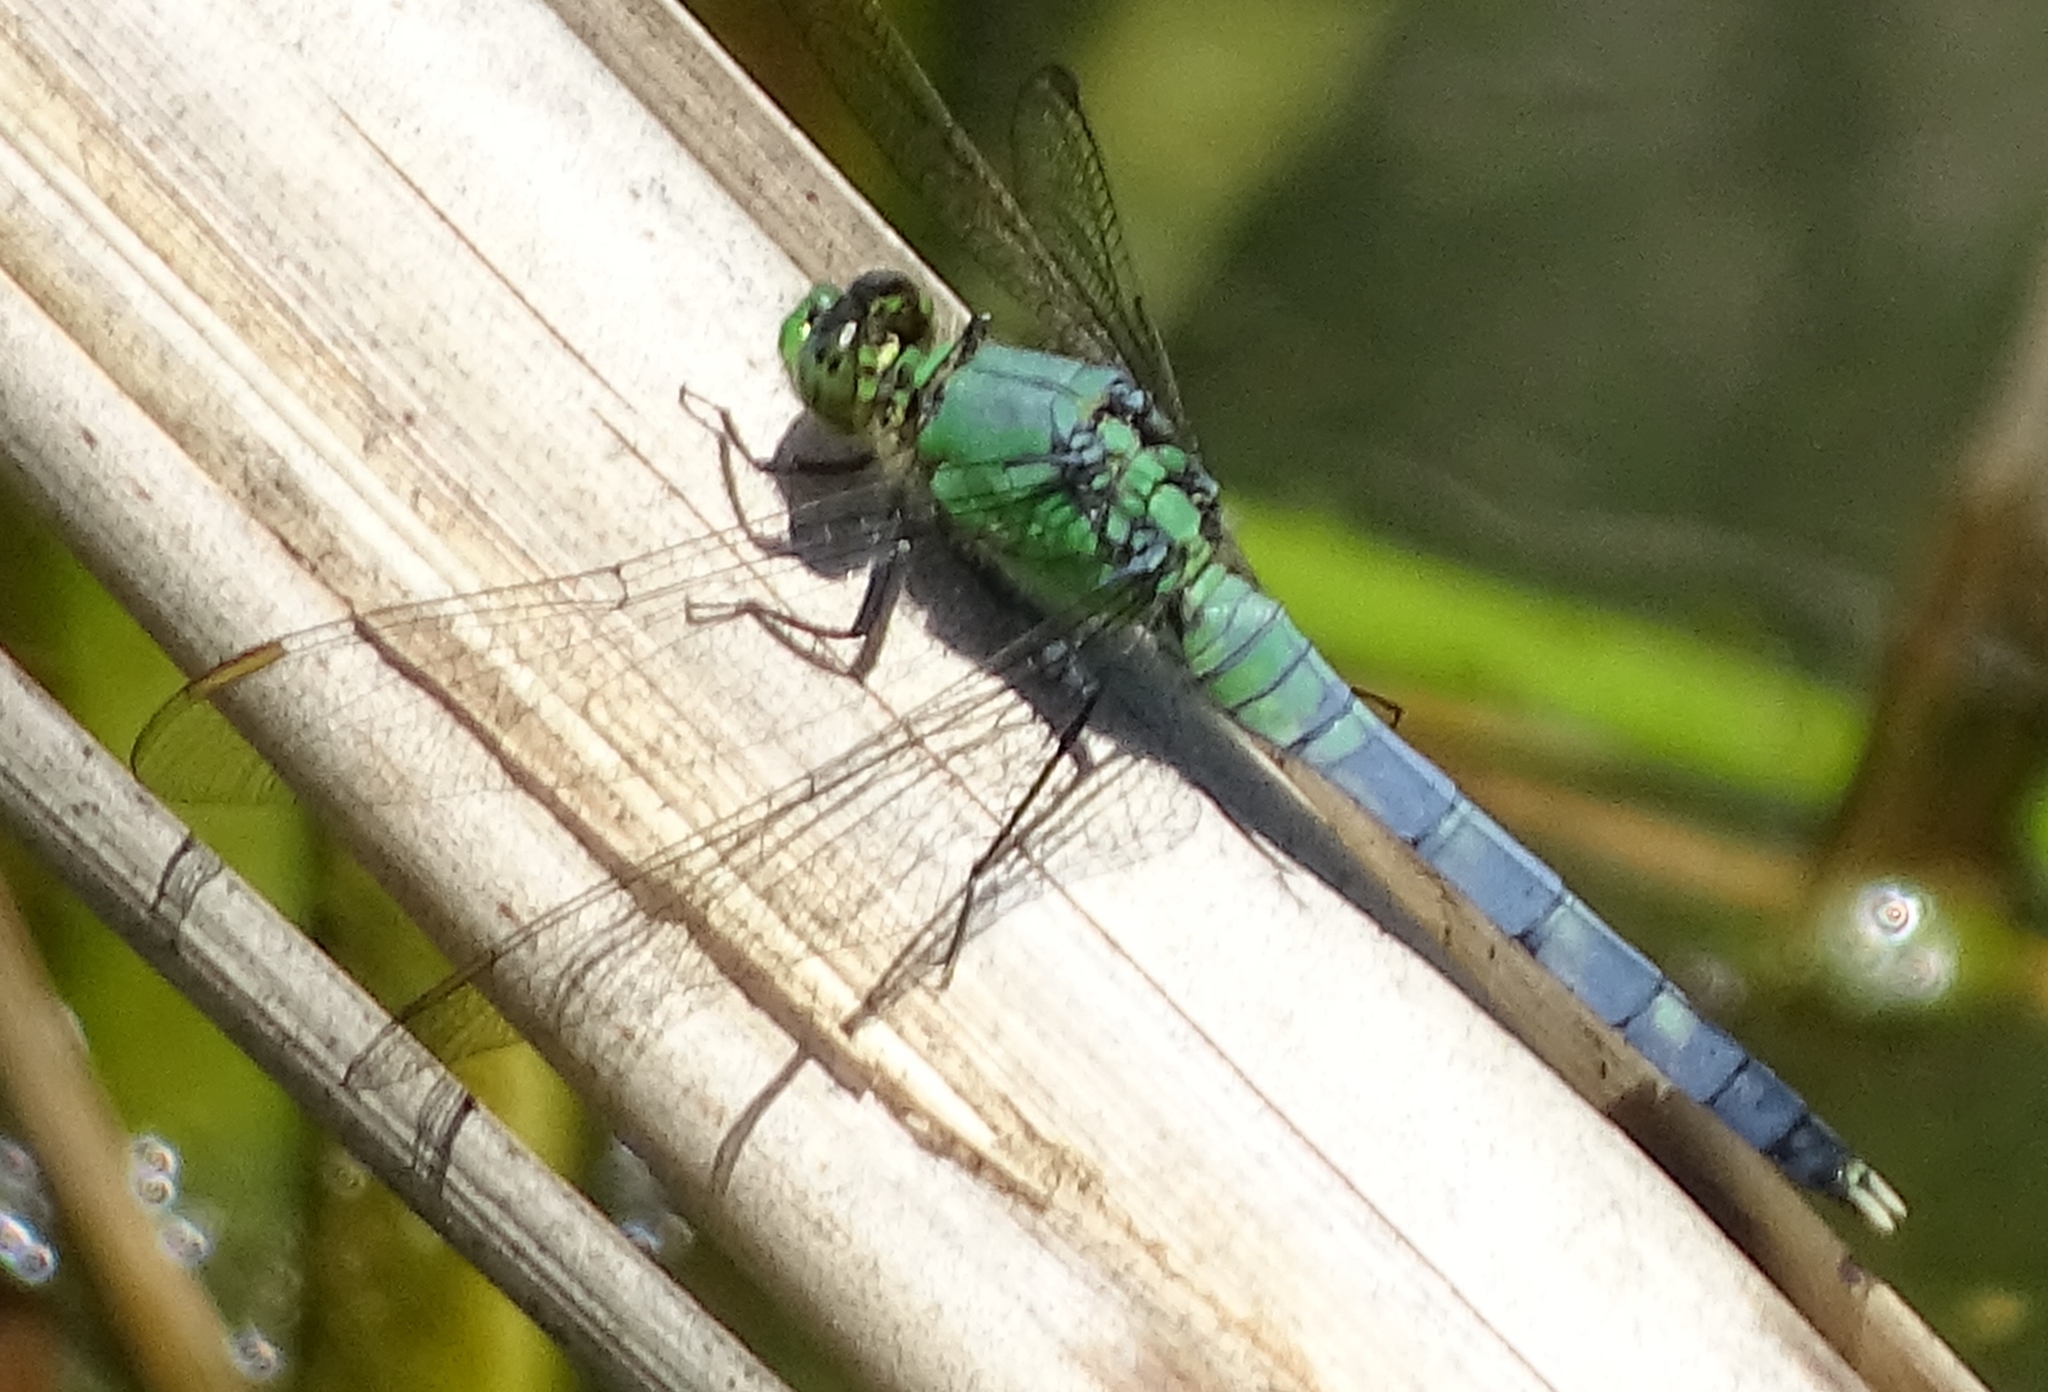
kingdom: Animalia
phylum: Arthropoda
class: Insecta
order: Odonata
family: Libellulidae
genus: Erythemis
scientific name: Erythemis simplicicollis
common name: Eastern pondhawk
